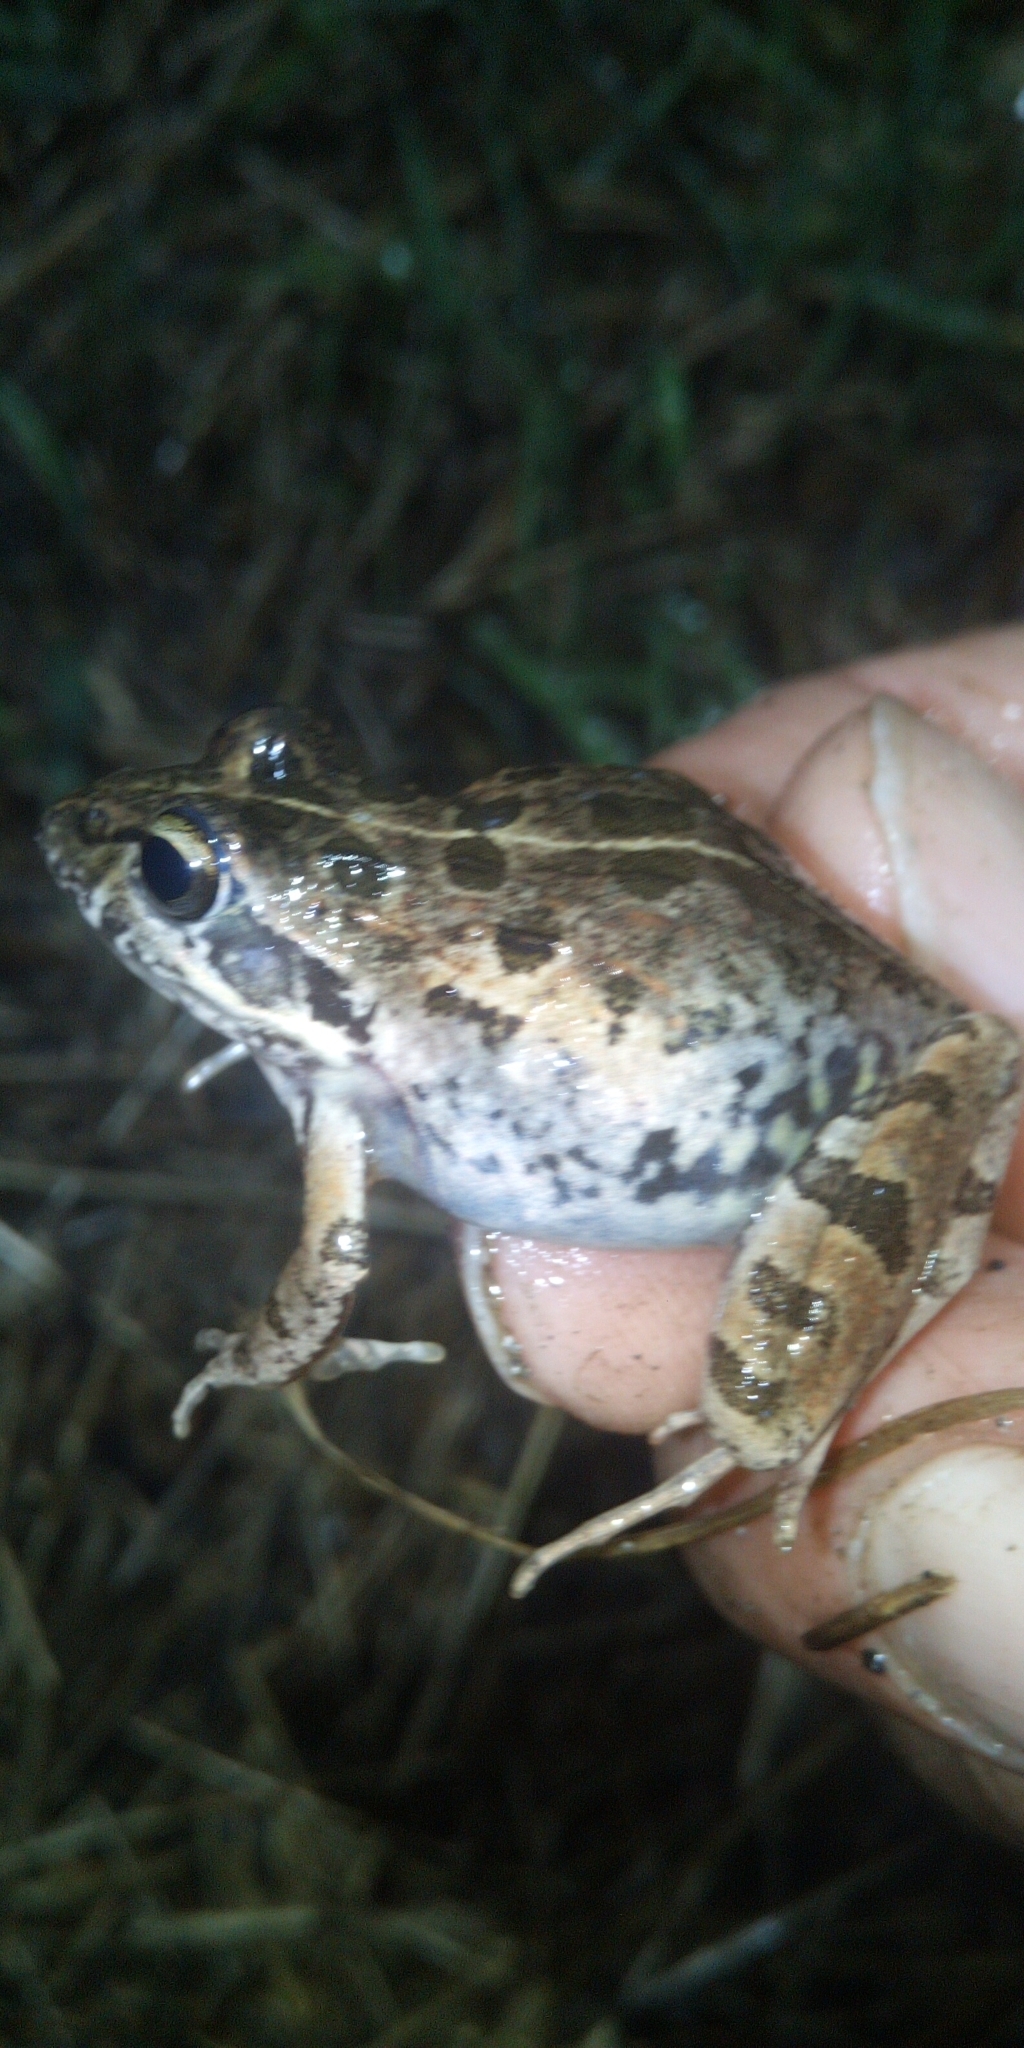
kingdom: Animalia
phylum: Chordata
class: Amphibia
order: Anura
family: Pyxicephalidae
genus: Strongylopus
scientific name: Strongylopus grayii
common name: Gray's stream frog
